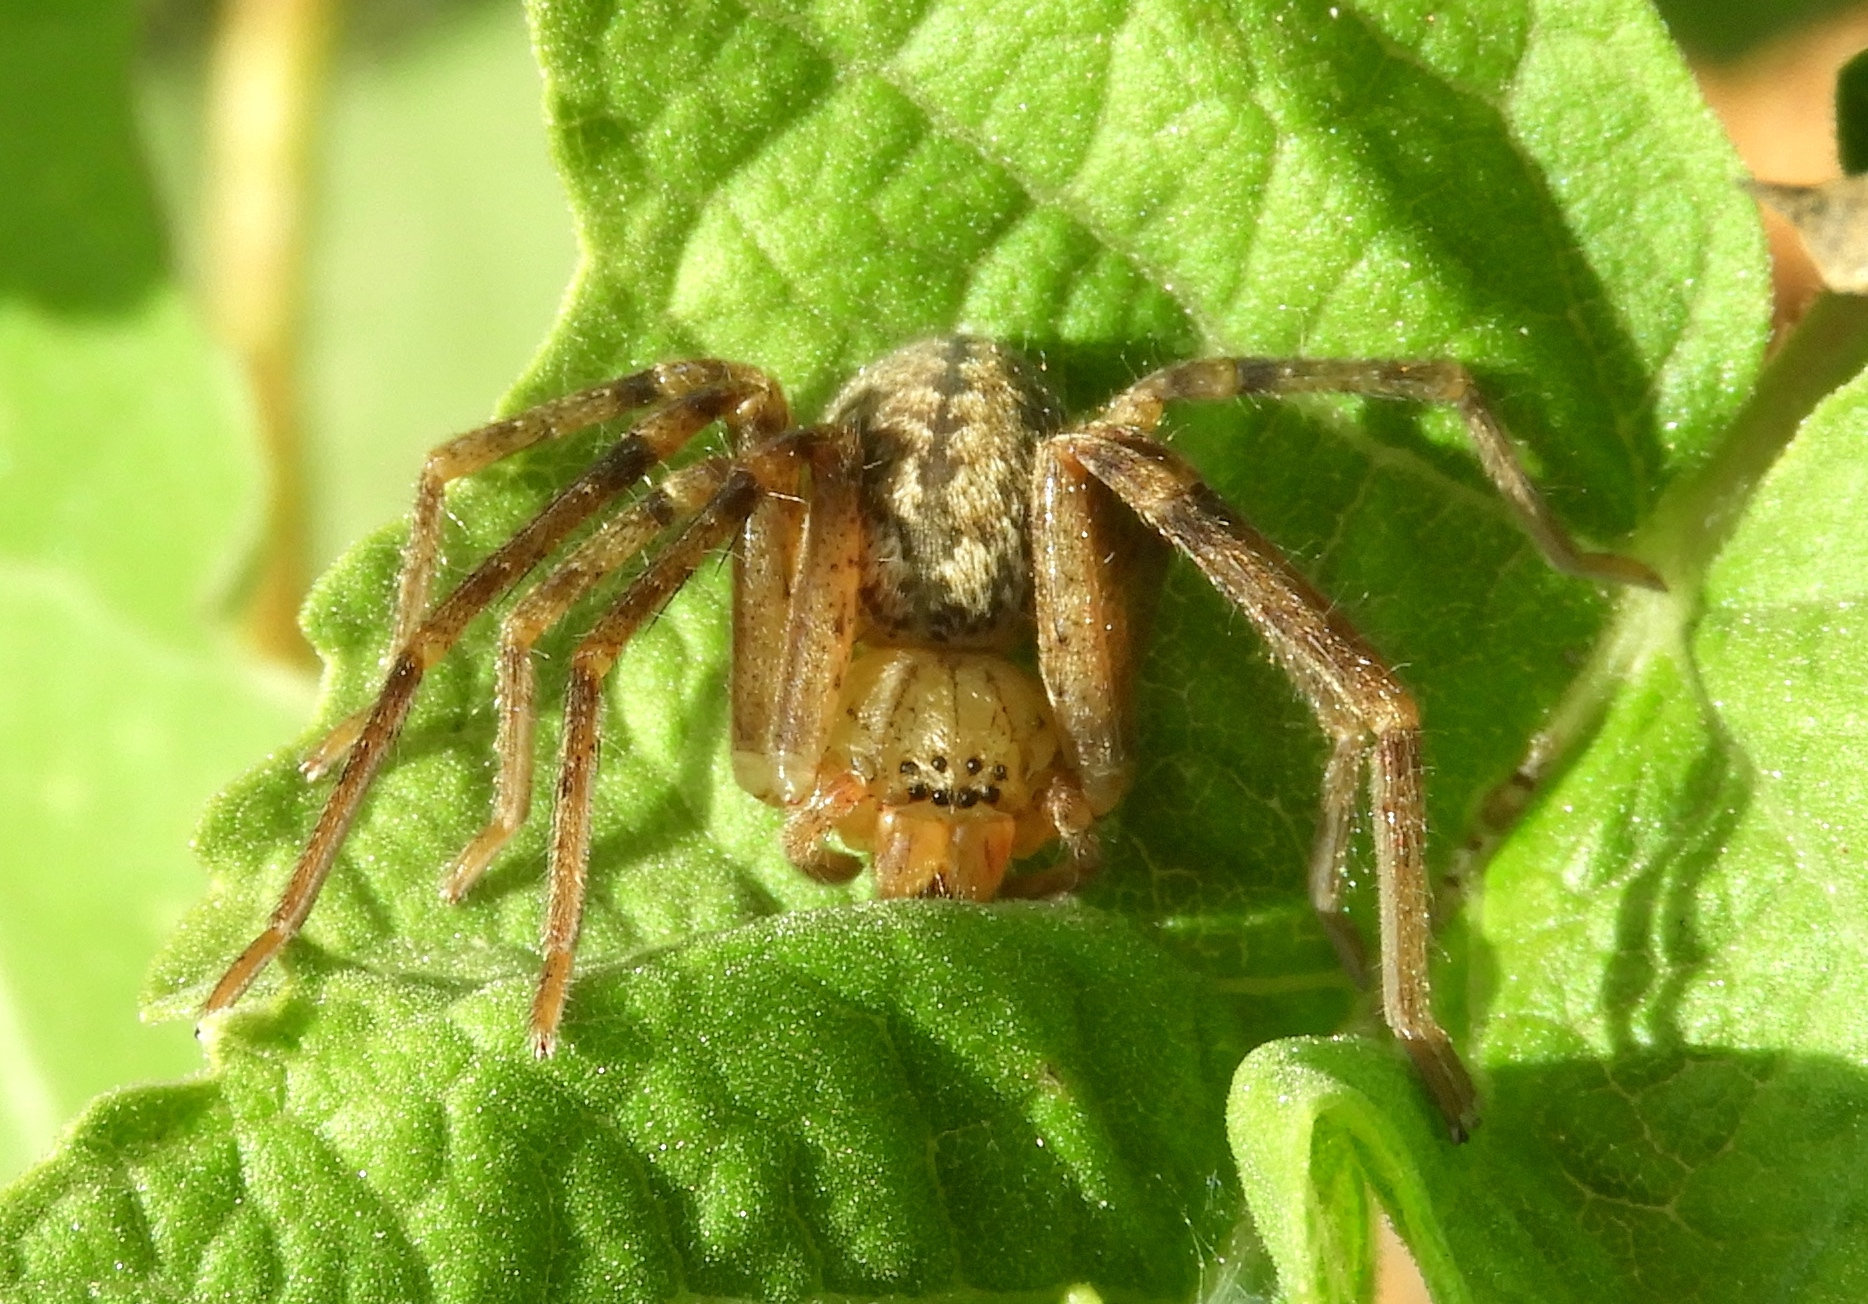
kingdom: Animalia
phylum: Arthropoda
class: Arachnida
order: Araneae
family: Sparassidae
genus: Curicaberis
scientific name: Curicaberis culiacan
